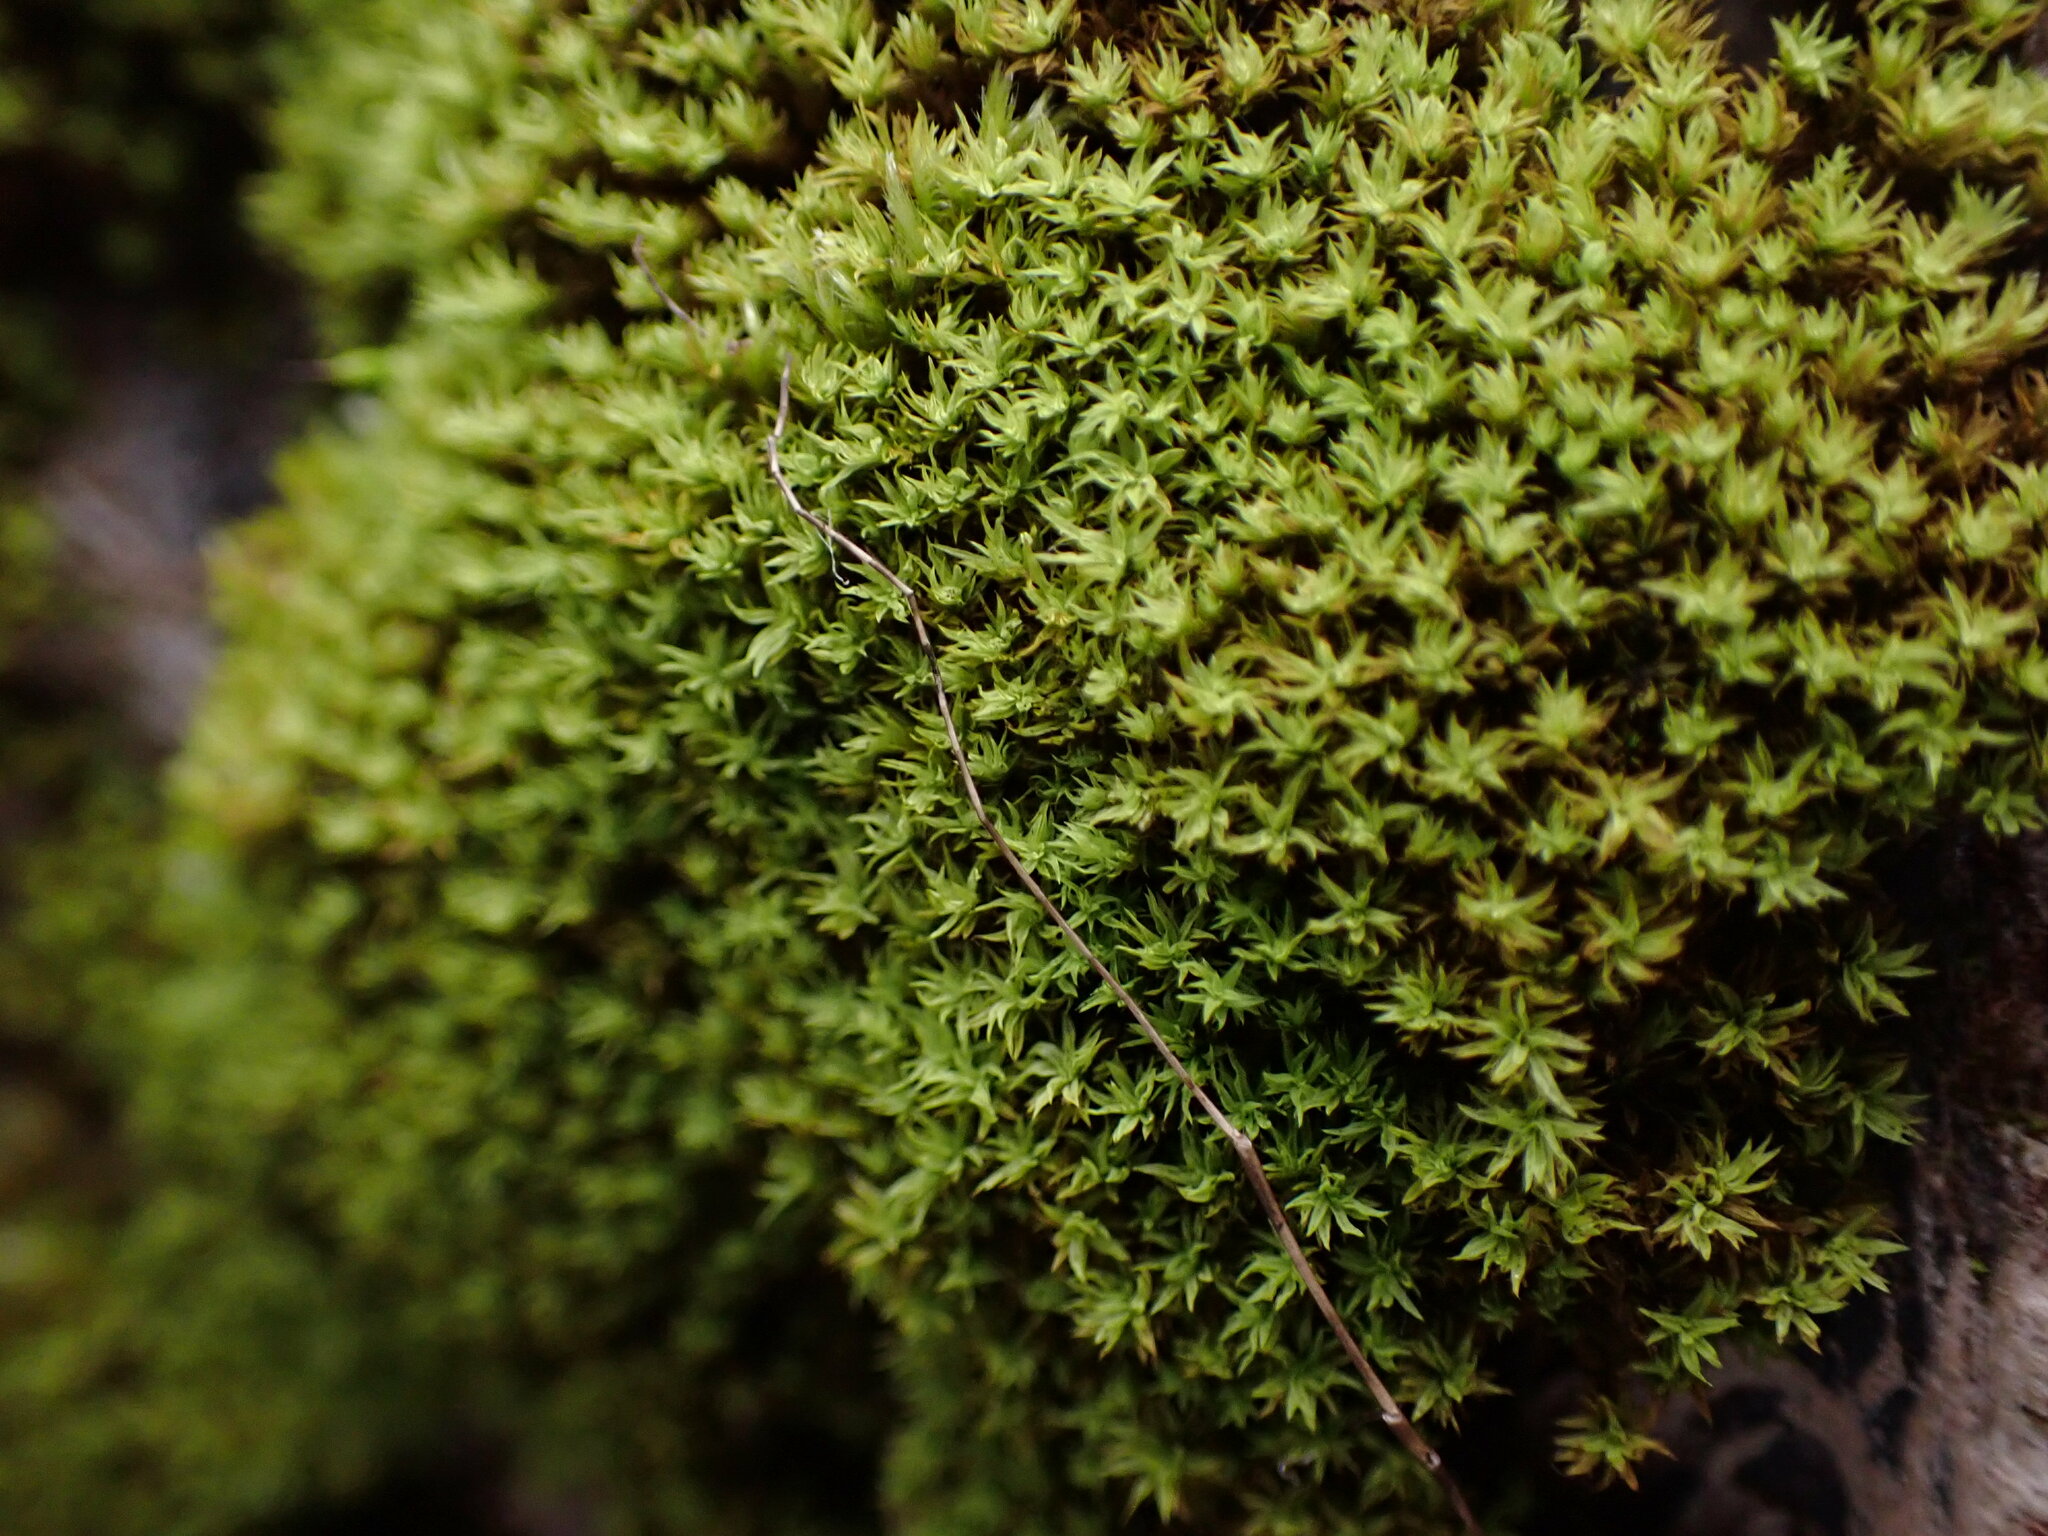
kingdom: Plantae
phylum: Bryophyta
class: Bryopsida
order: Orthotrichales
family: Orthotrichaceae
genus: Zygodon
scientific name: Zygodon rupestris
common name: Park yoke moss
